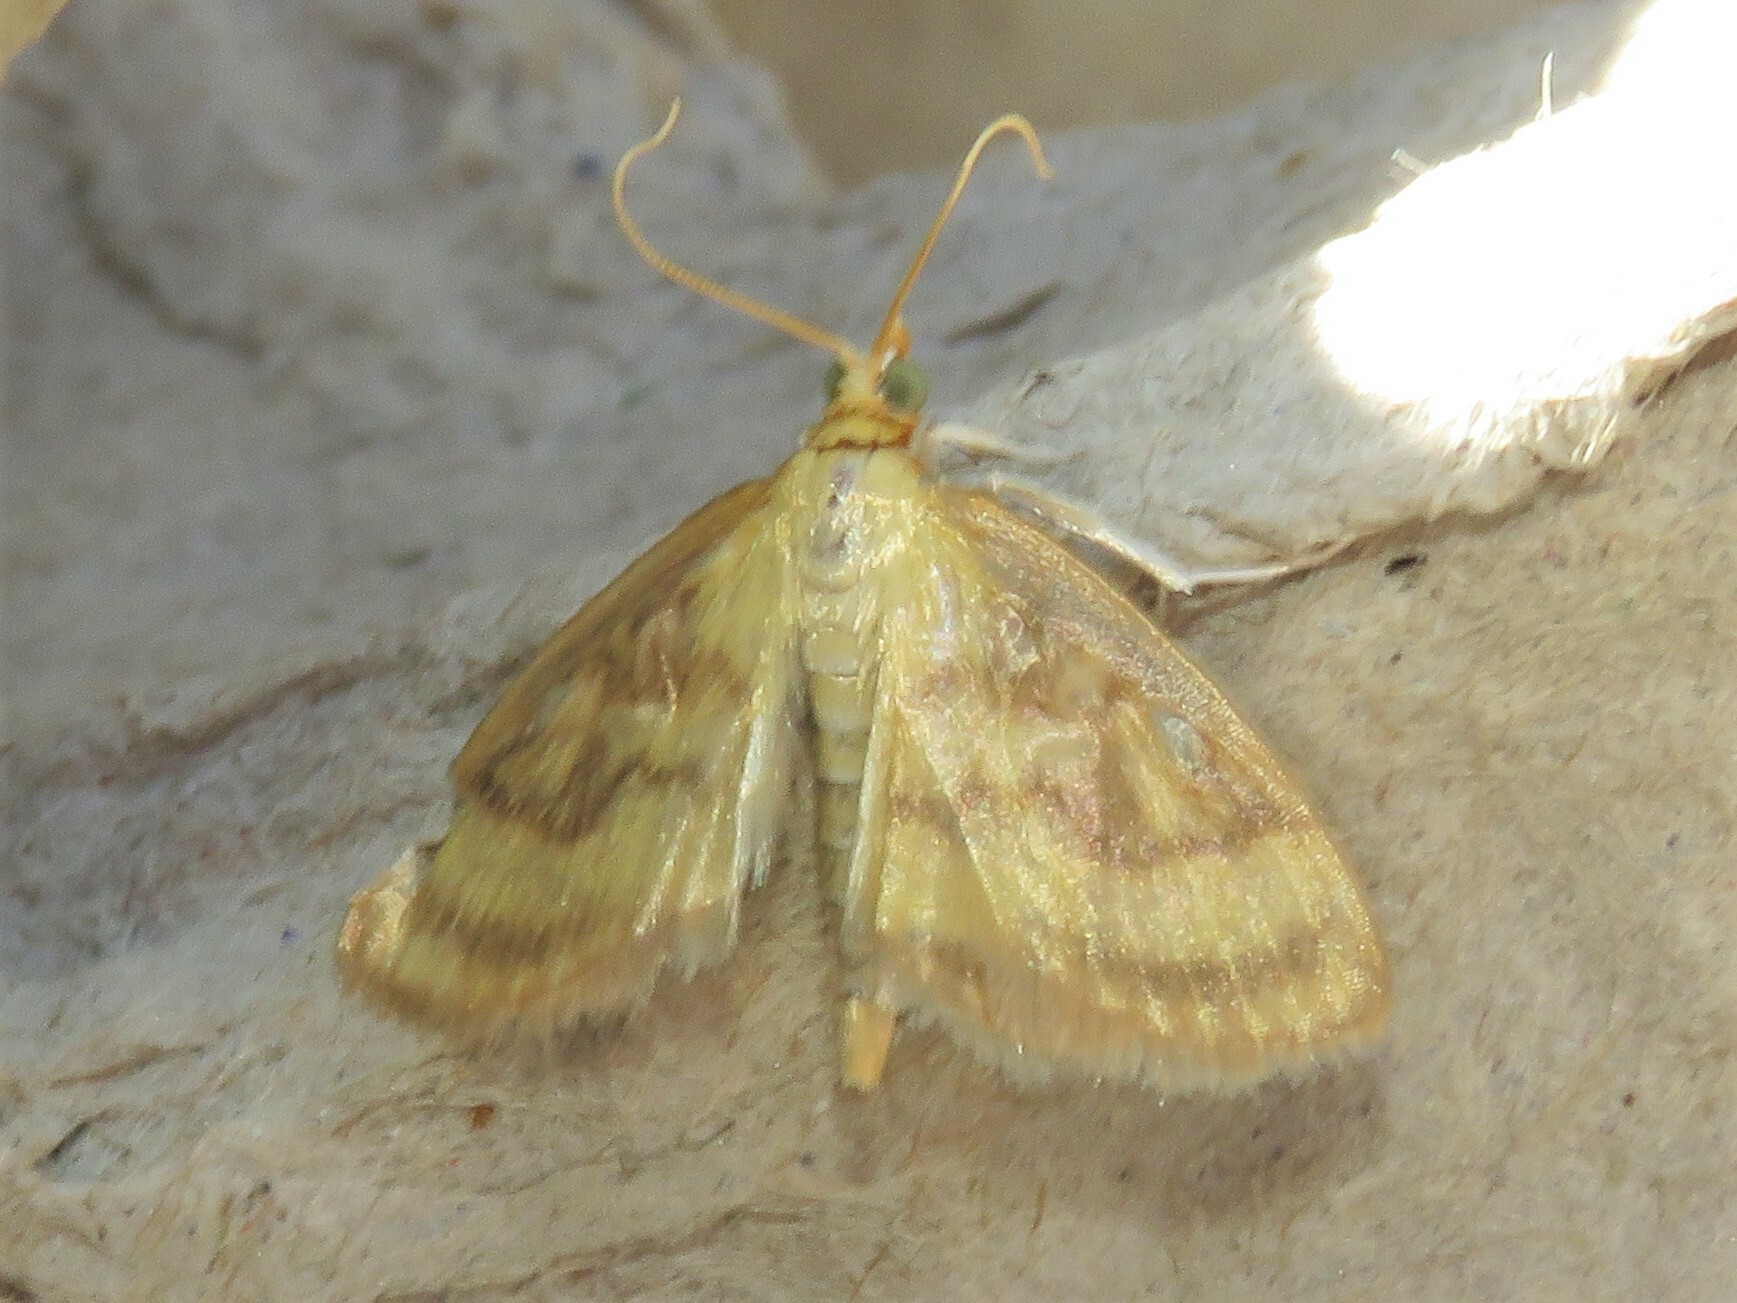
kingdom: Animalia
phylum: Arthropoda
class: Insecta
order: Lepidoptera
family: Crambidae
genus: Crocidophora
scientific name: Crocidophora tuberculalis
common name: Pale-winged crocidiphora moth
